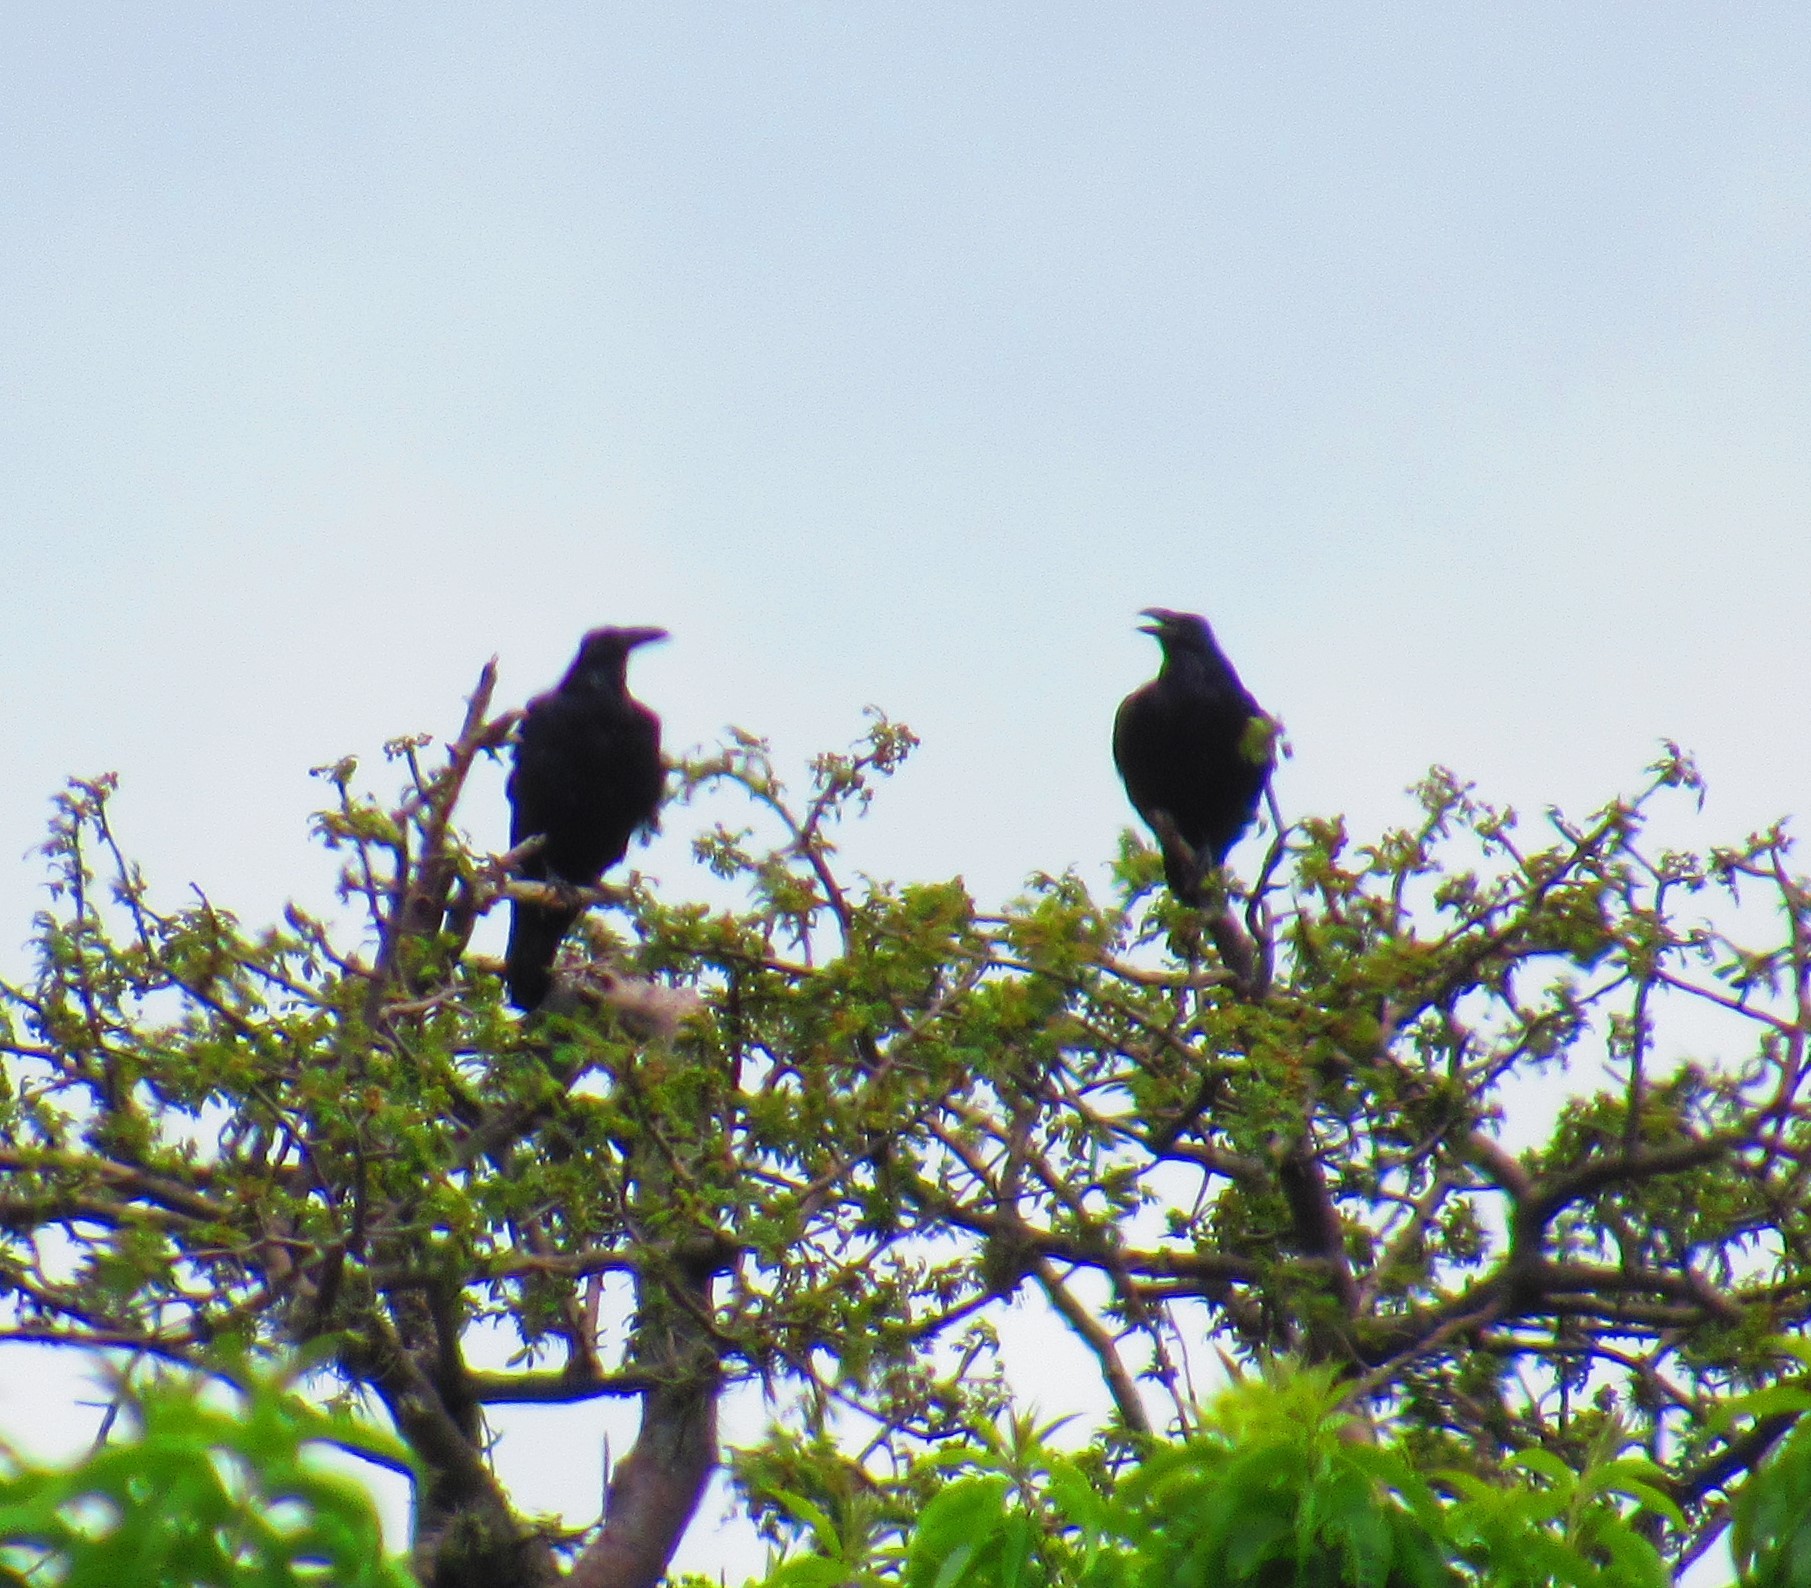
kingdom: Animalia
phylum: Chordata
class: Aves
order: Passeriformes
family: Corvidae
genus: Corvus
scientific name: Corvus corax
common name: Common raven
